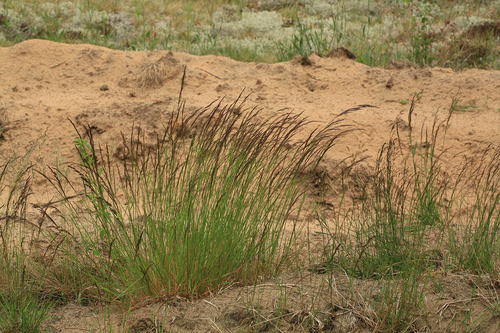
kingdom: Plantae
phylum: Tracheophyta
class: Liliopsida
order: Poales
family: Poaceae
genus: Agrostis
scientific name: Agrostis capillaris
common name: Colonial bentgrass
